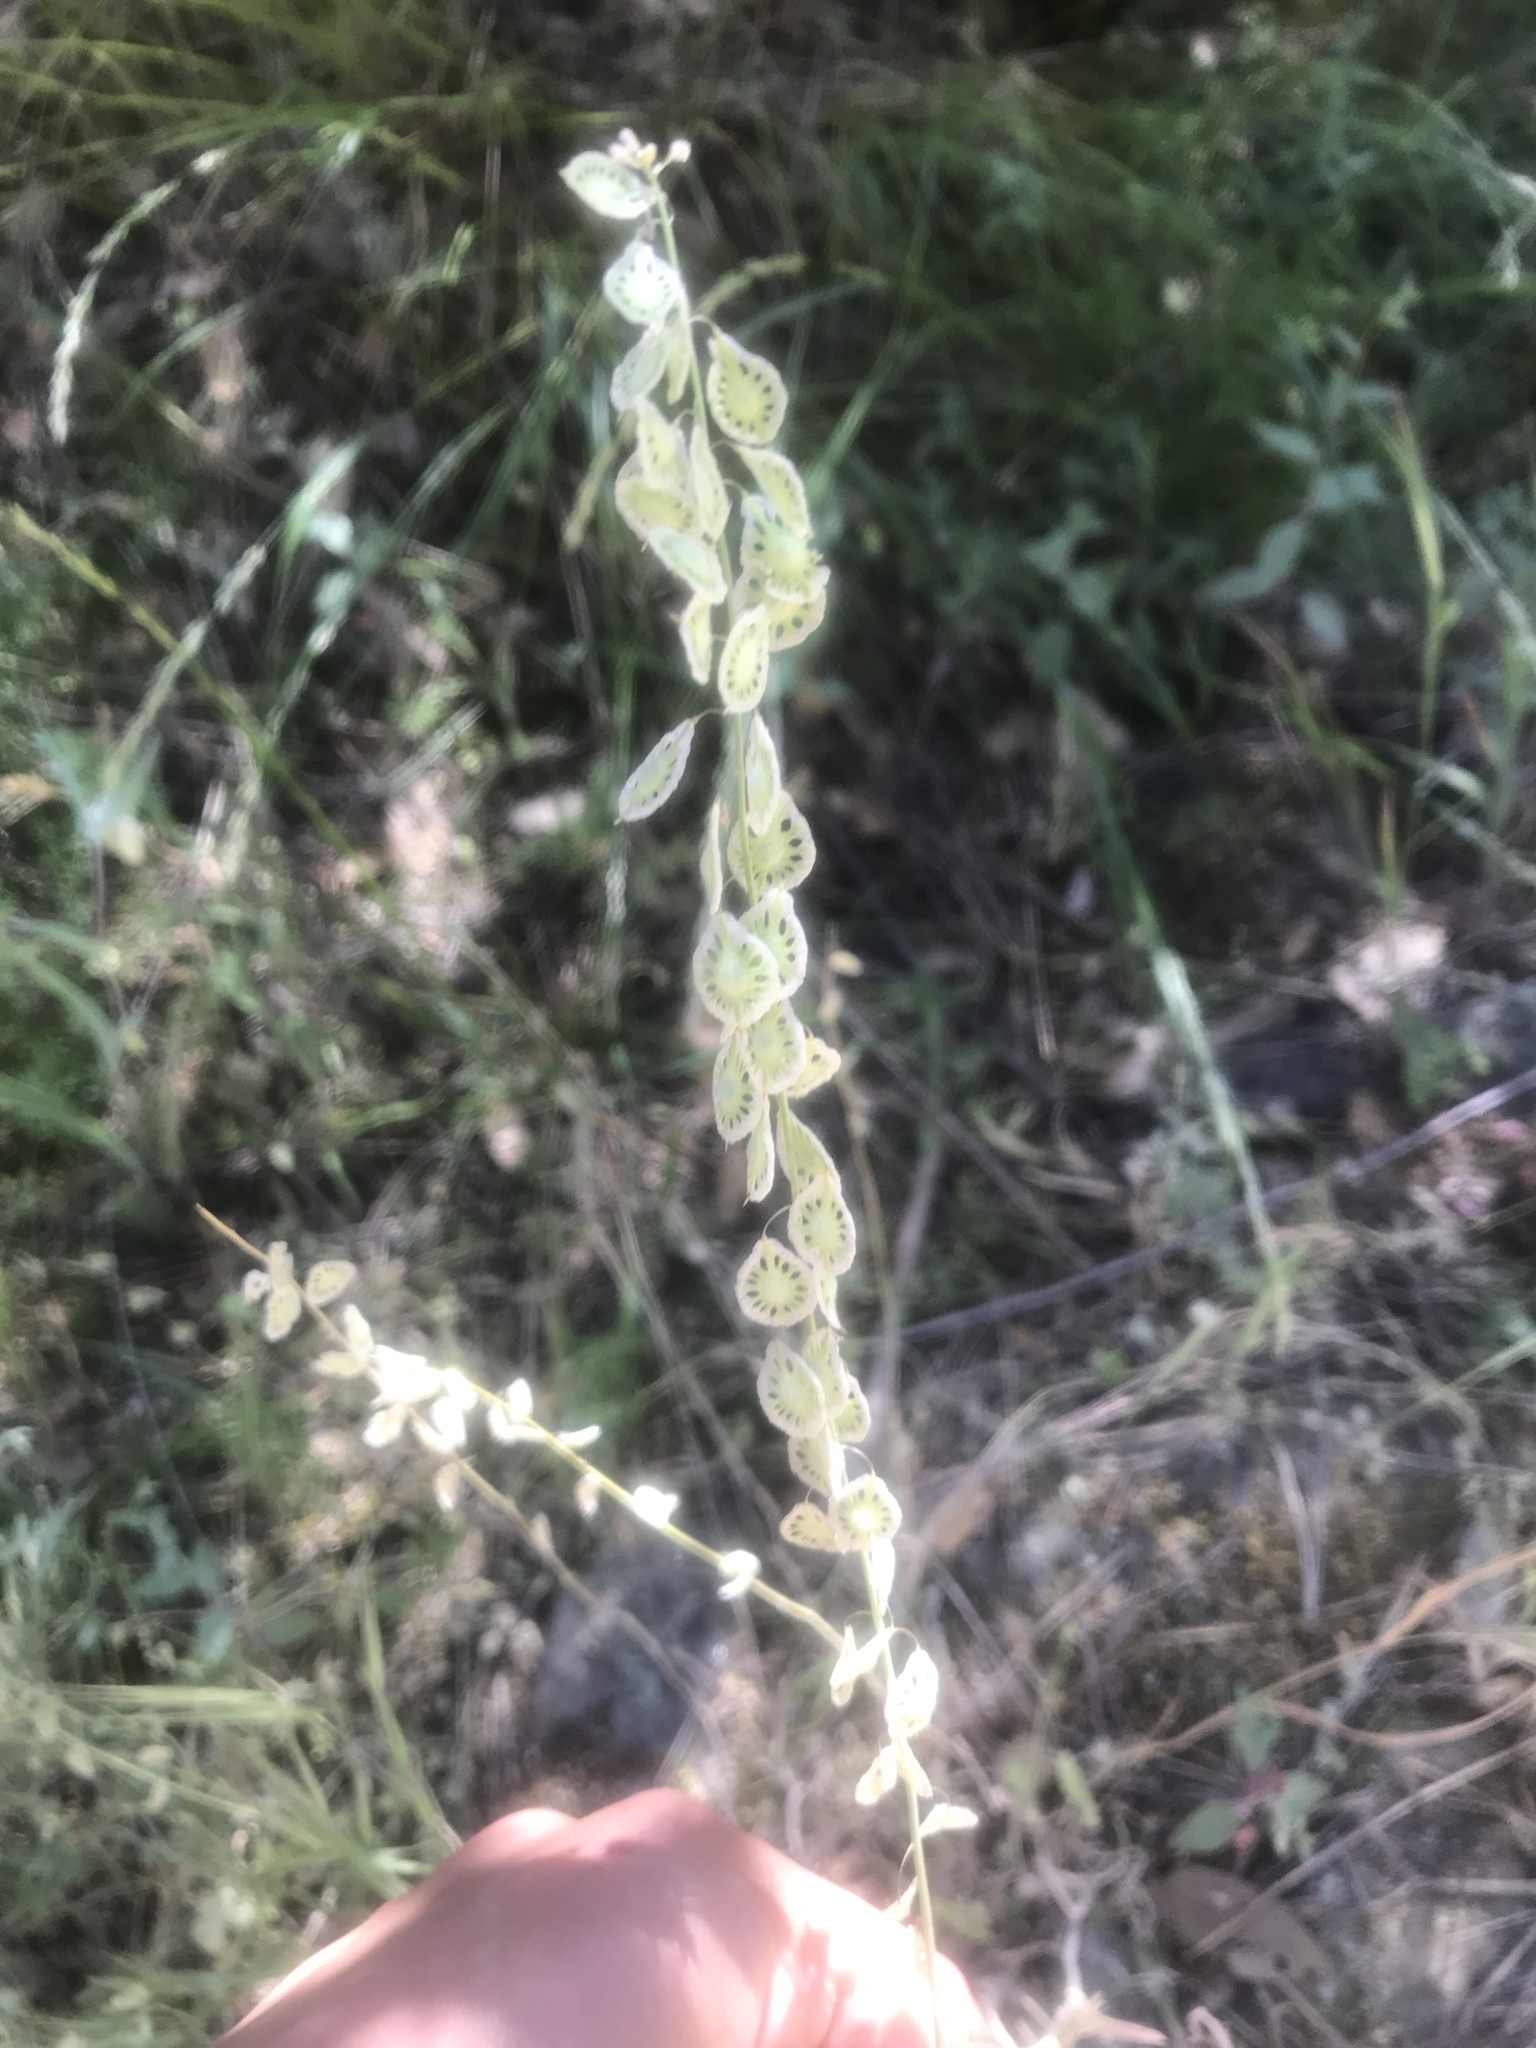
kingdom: Plantae
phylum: Tracheophyta
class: Magnoliopsida
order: Brassicales
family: Brassicaceae
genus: Thysanocarpus
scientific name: Thysanocarpus curvipes
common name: Sand fringepod
